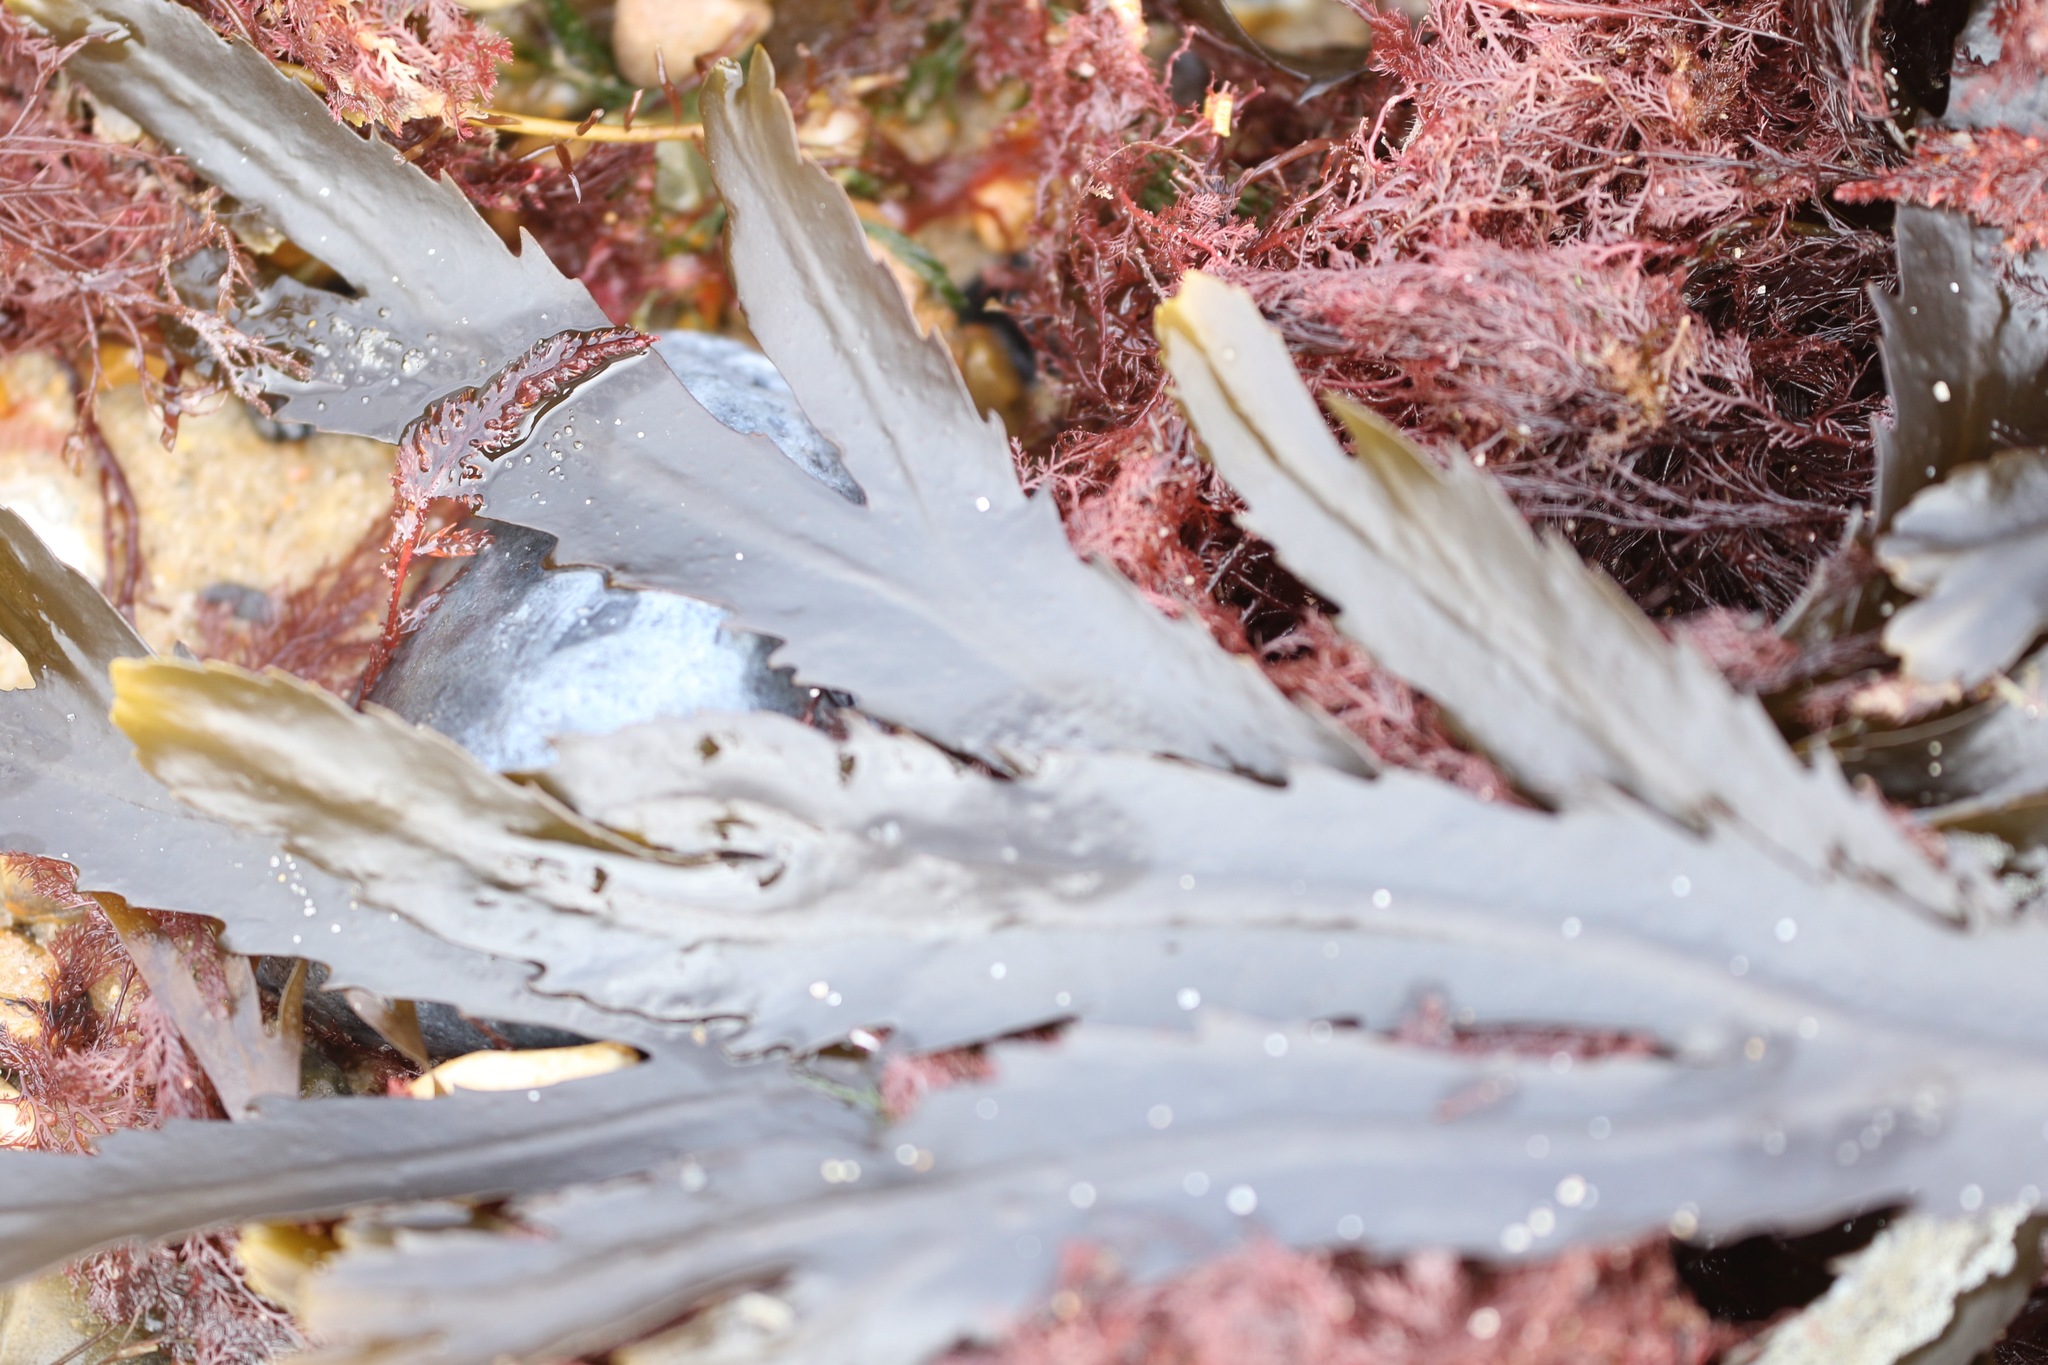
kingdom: Chromista
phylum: Ochrophyta
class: Phaeophyceae
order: Fucales
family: Fucaceae
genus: Fucus
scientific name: Fucus serratus
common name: Toothed wrack
